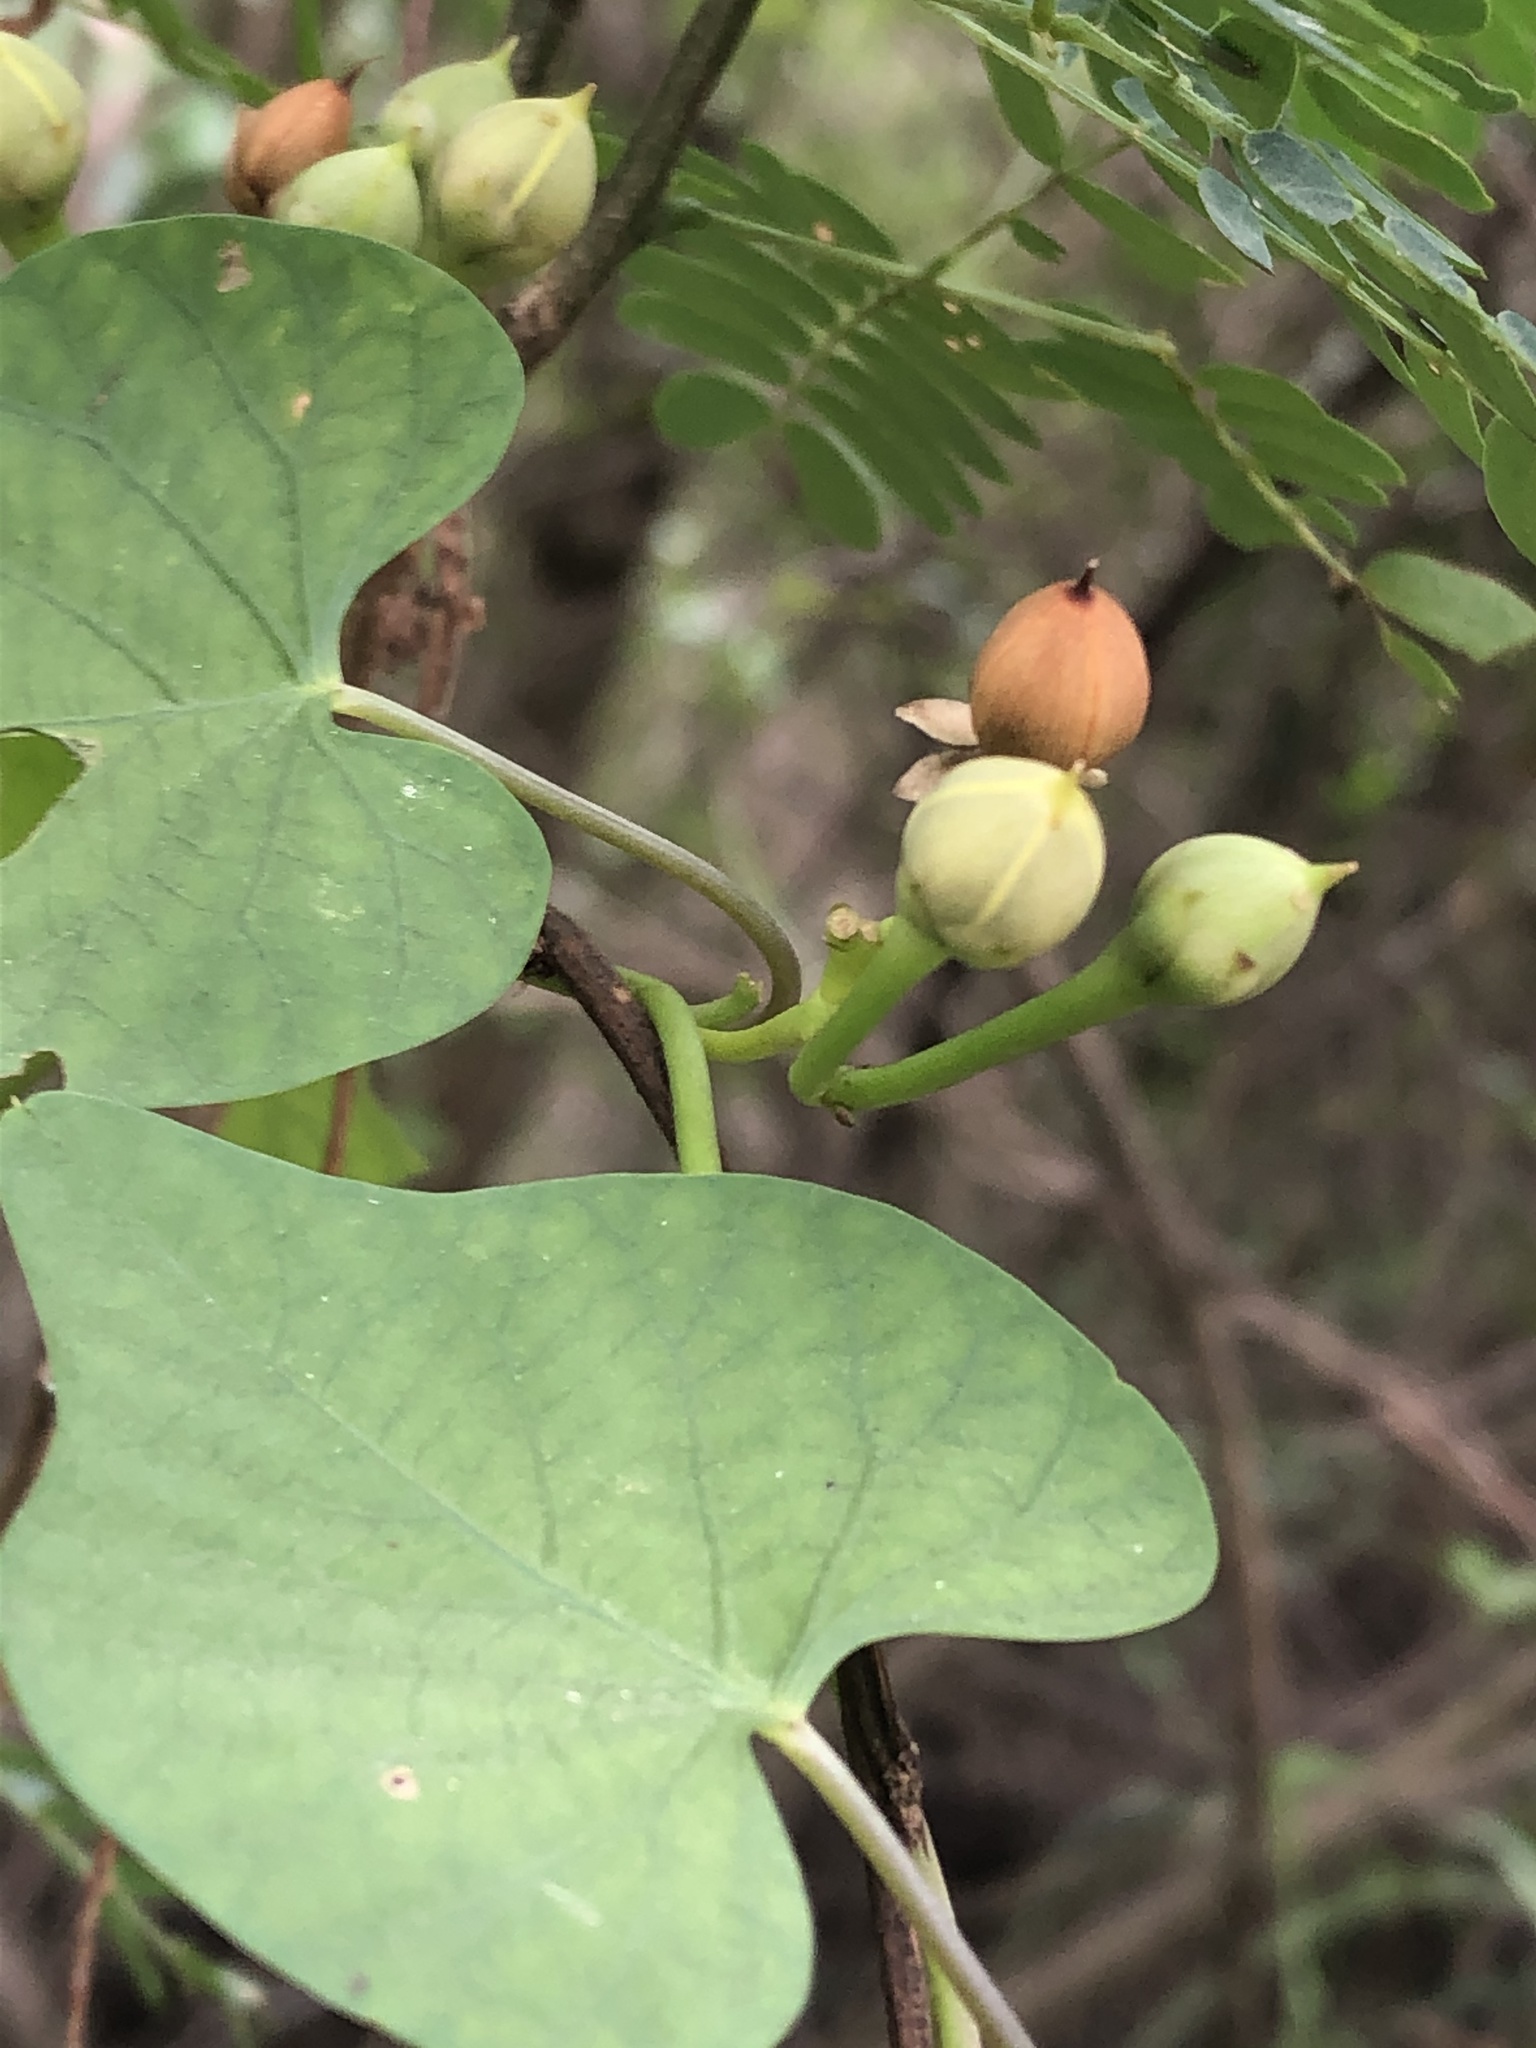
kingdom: Plantae
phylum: Tracheophyta
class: Magnoliopsida
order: Solanales
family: Convolvulaceae
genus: Ipomoea
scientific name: Ipomoea amnicola
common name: Redcenter morning-glory
